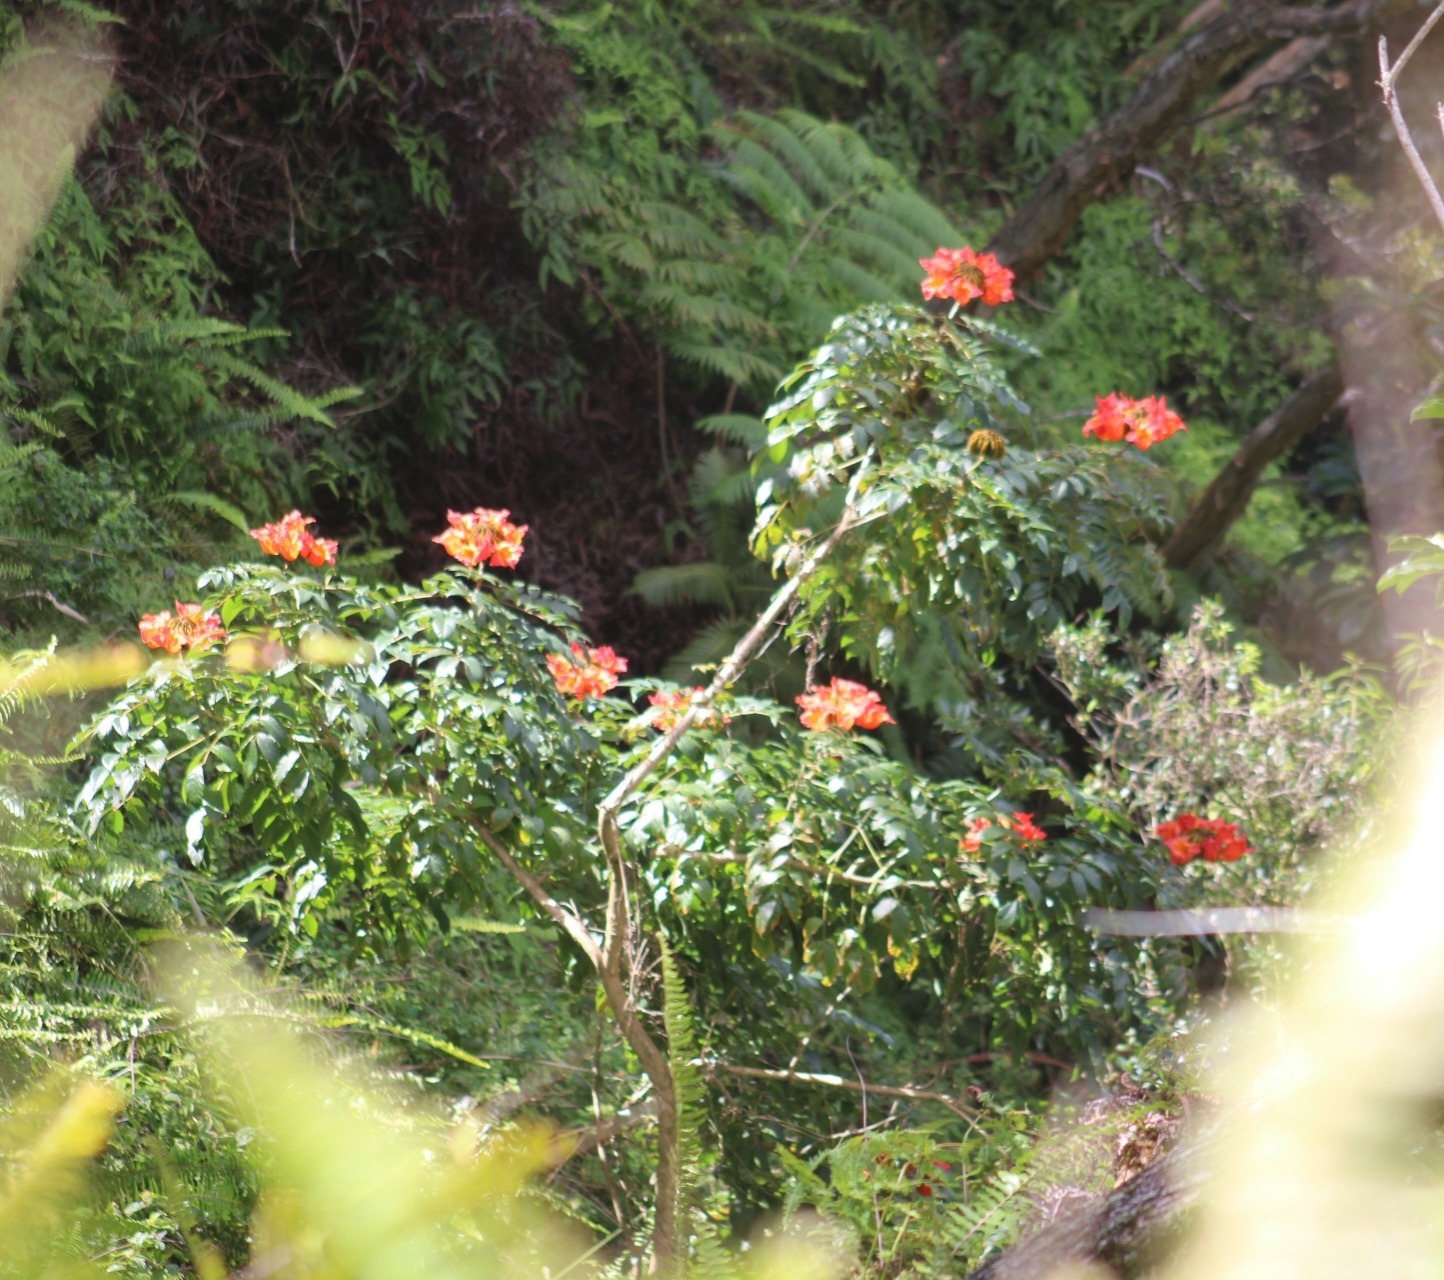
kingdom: Plantae
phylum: Tracheophyta
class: Magnoliopsida
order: Lamiales
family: Bignoniaceae
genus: Spathodea
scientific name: Spathodea campanulata
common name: African tuliptree
